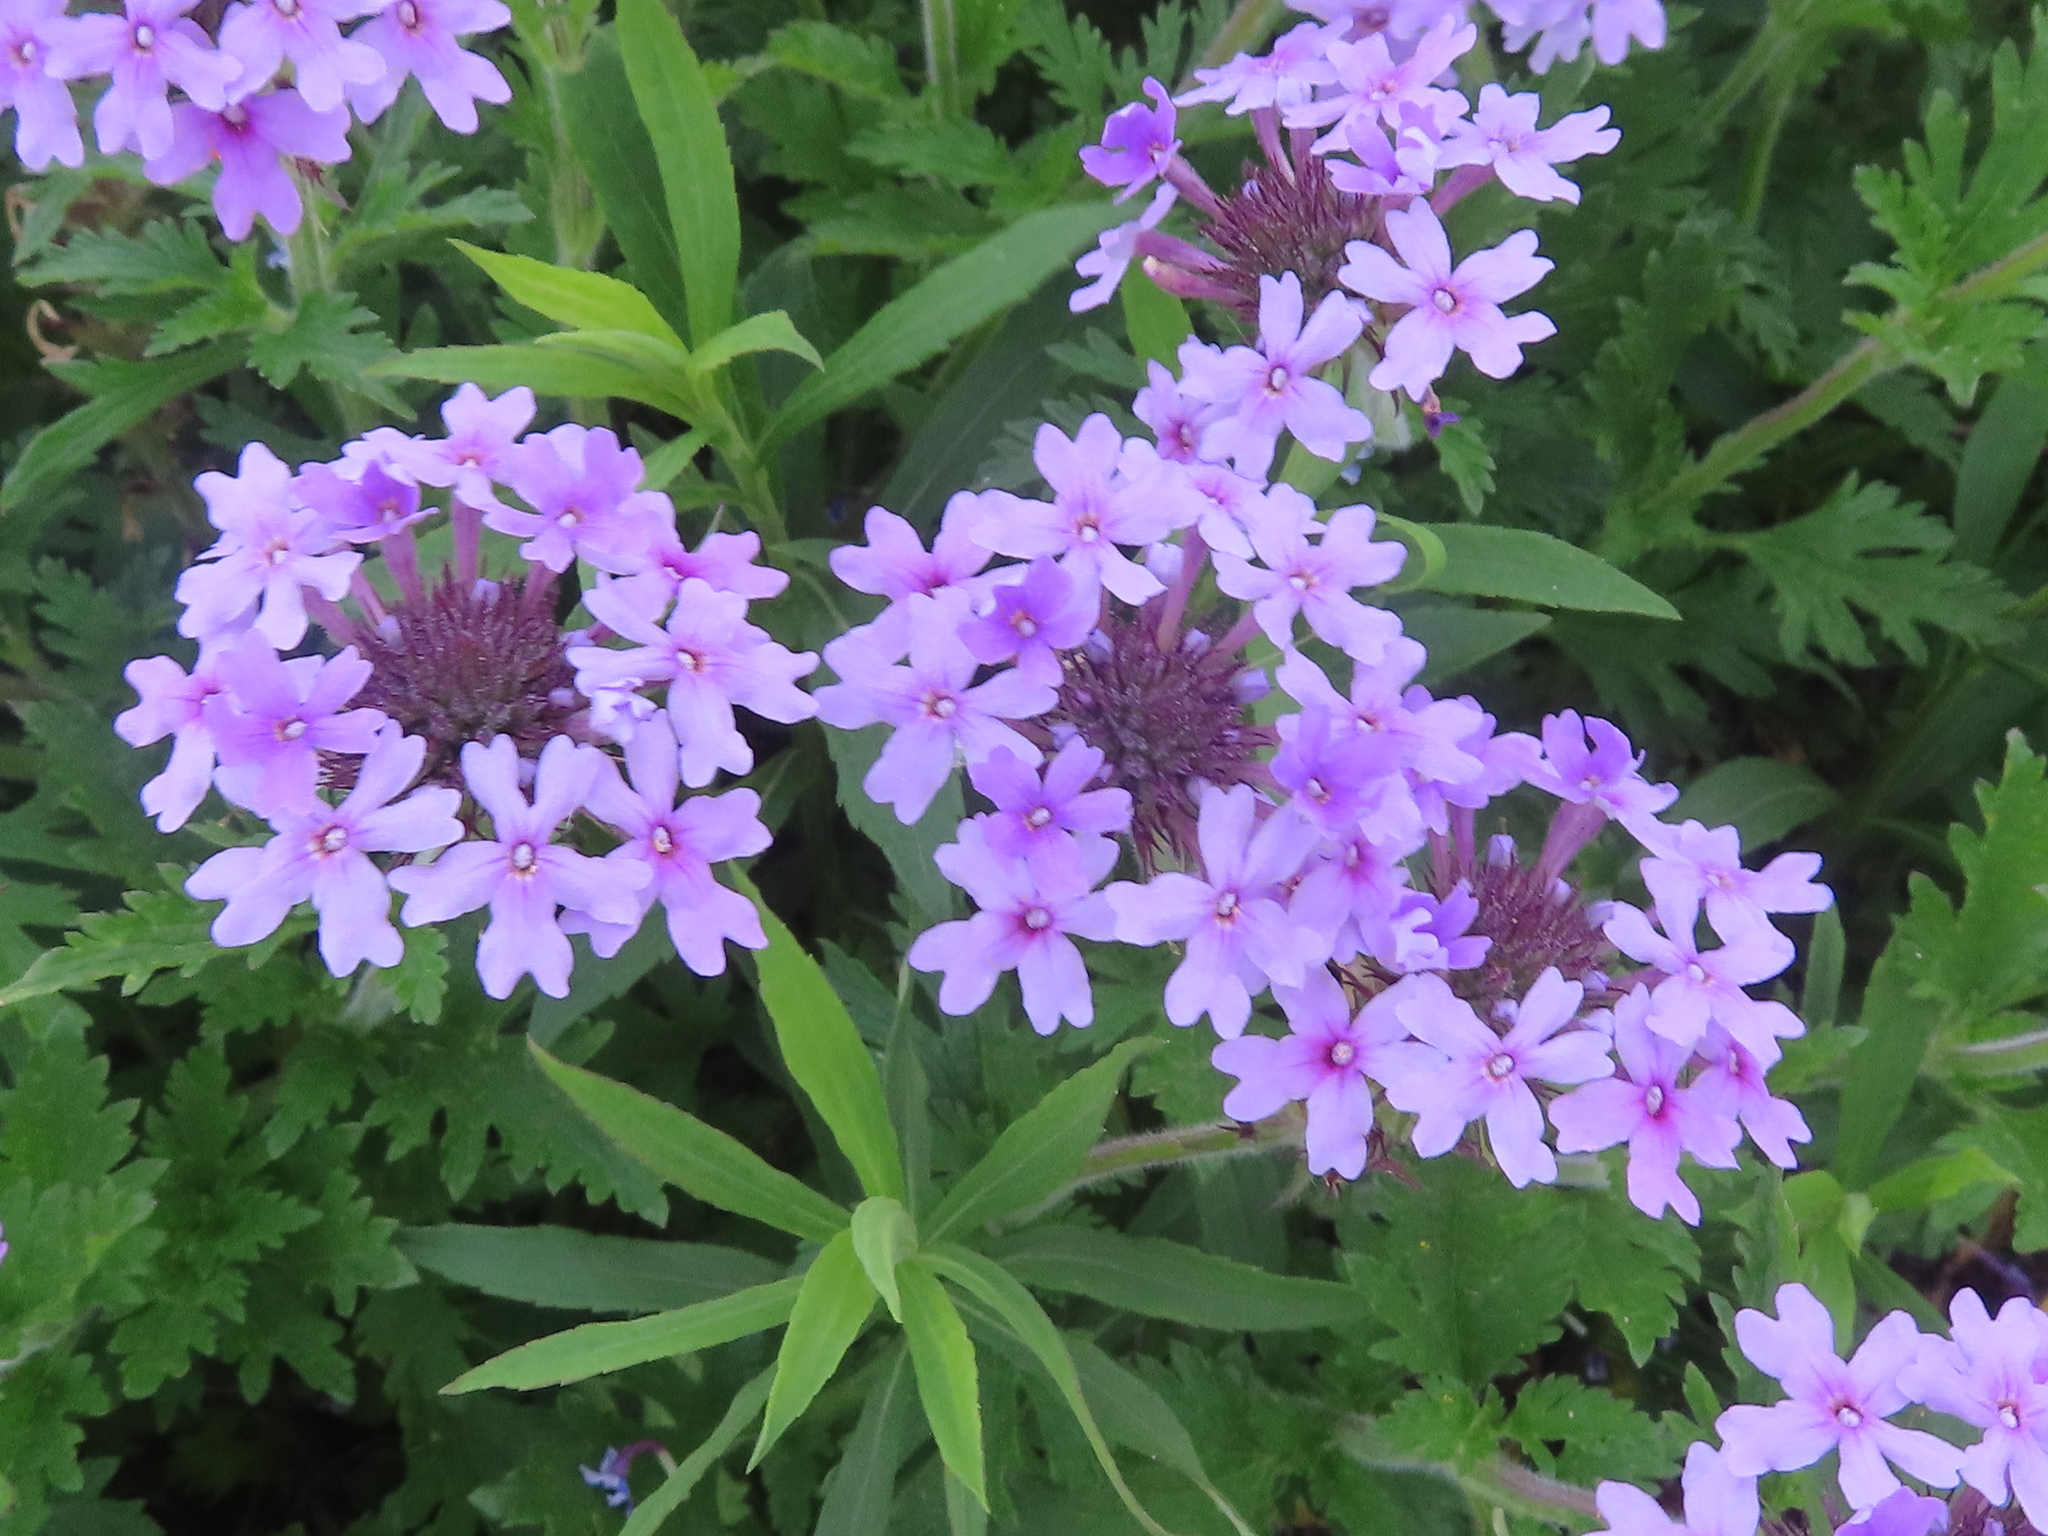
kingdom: Plantae
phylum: Tracheophyta
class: Magnoliopsida
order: Lamiales
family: Verbenaceae
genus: Verbena
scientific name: Verbena canadensis
